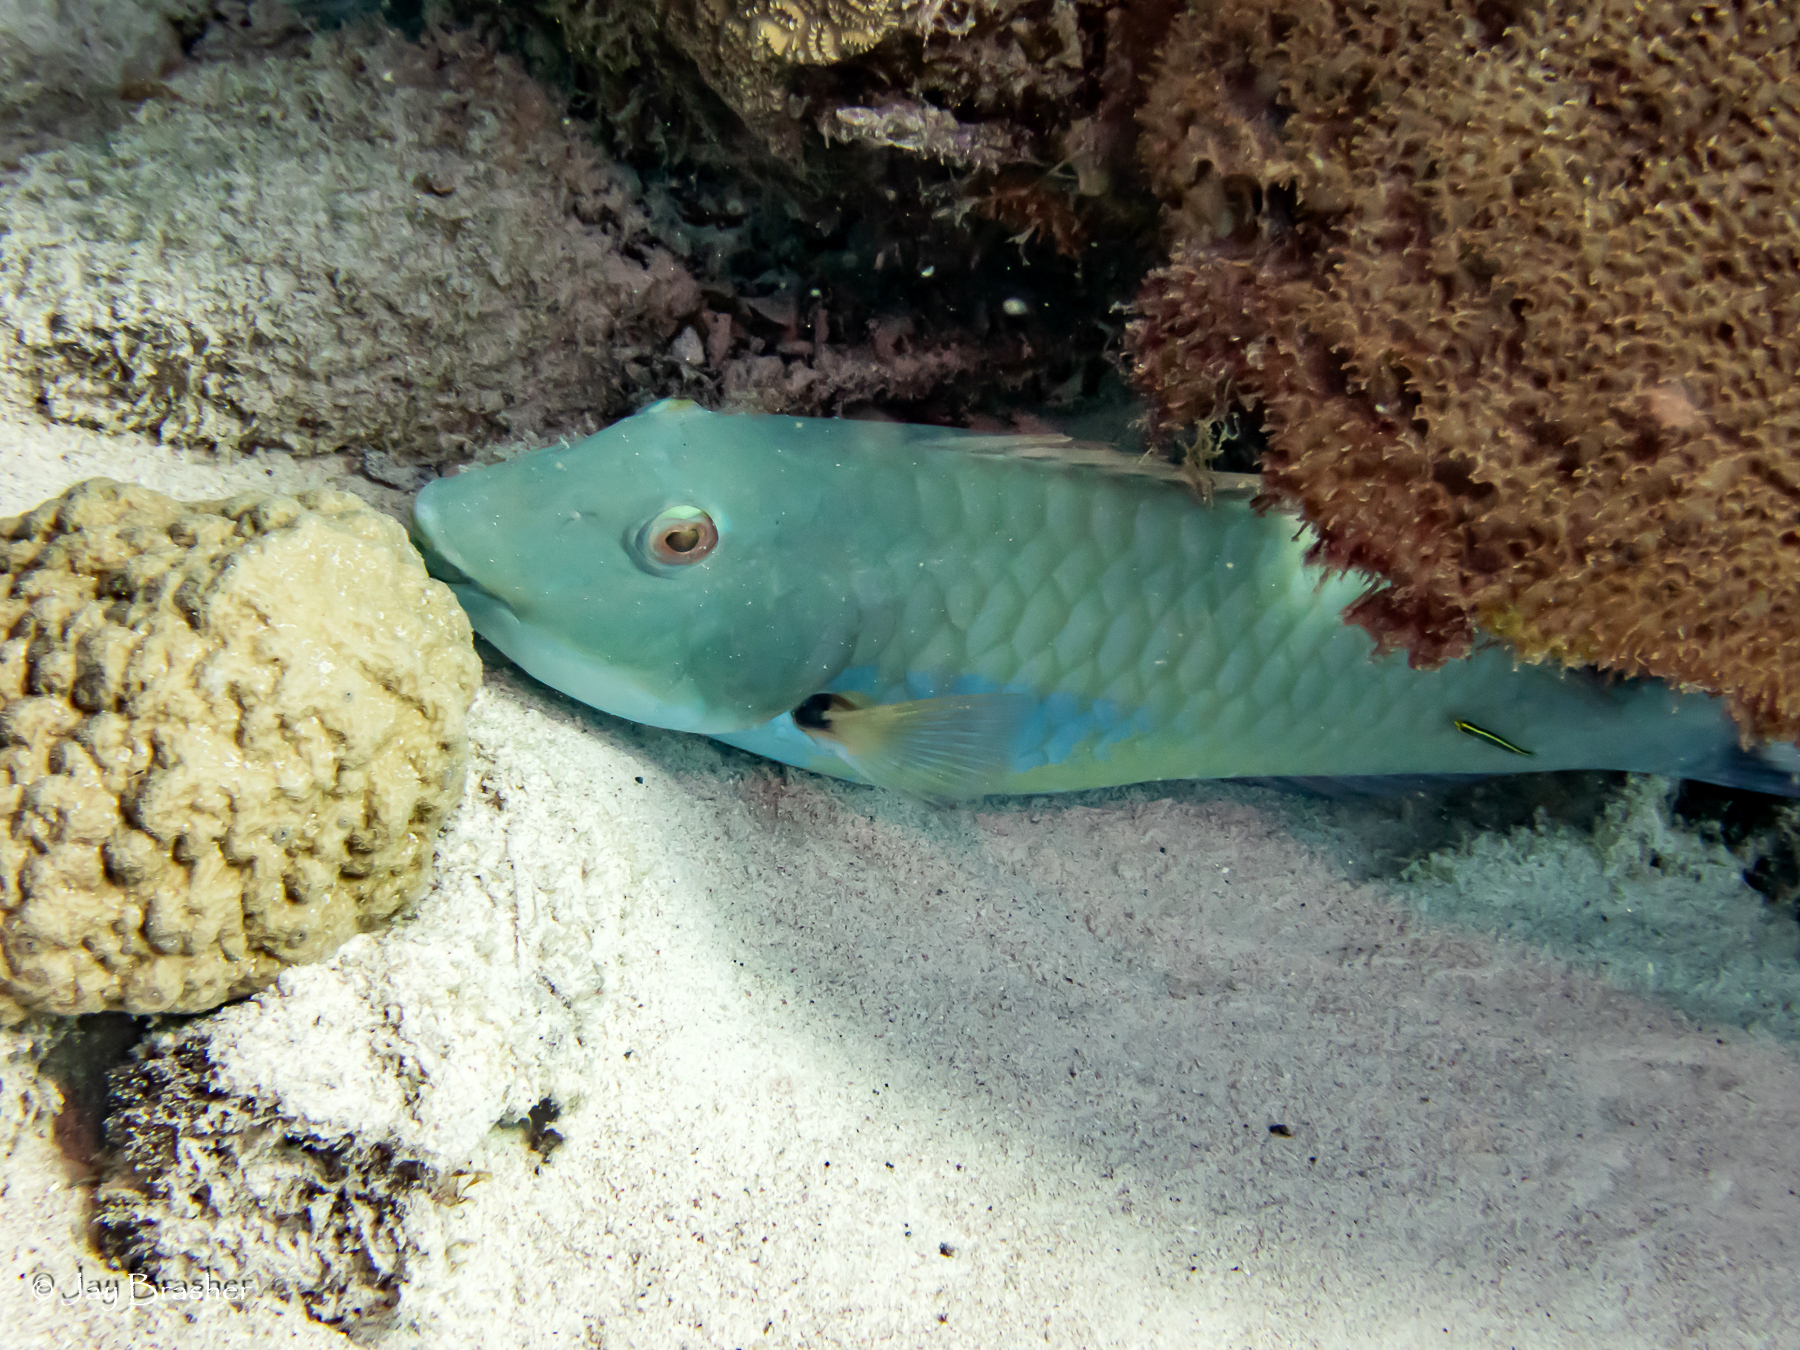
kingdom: Animalia
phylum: Chordata
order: Perciformes
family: Scaridae
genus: Sparisoma
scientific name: Sparisoma chrysopterum
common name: Redtail parrotfish
